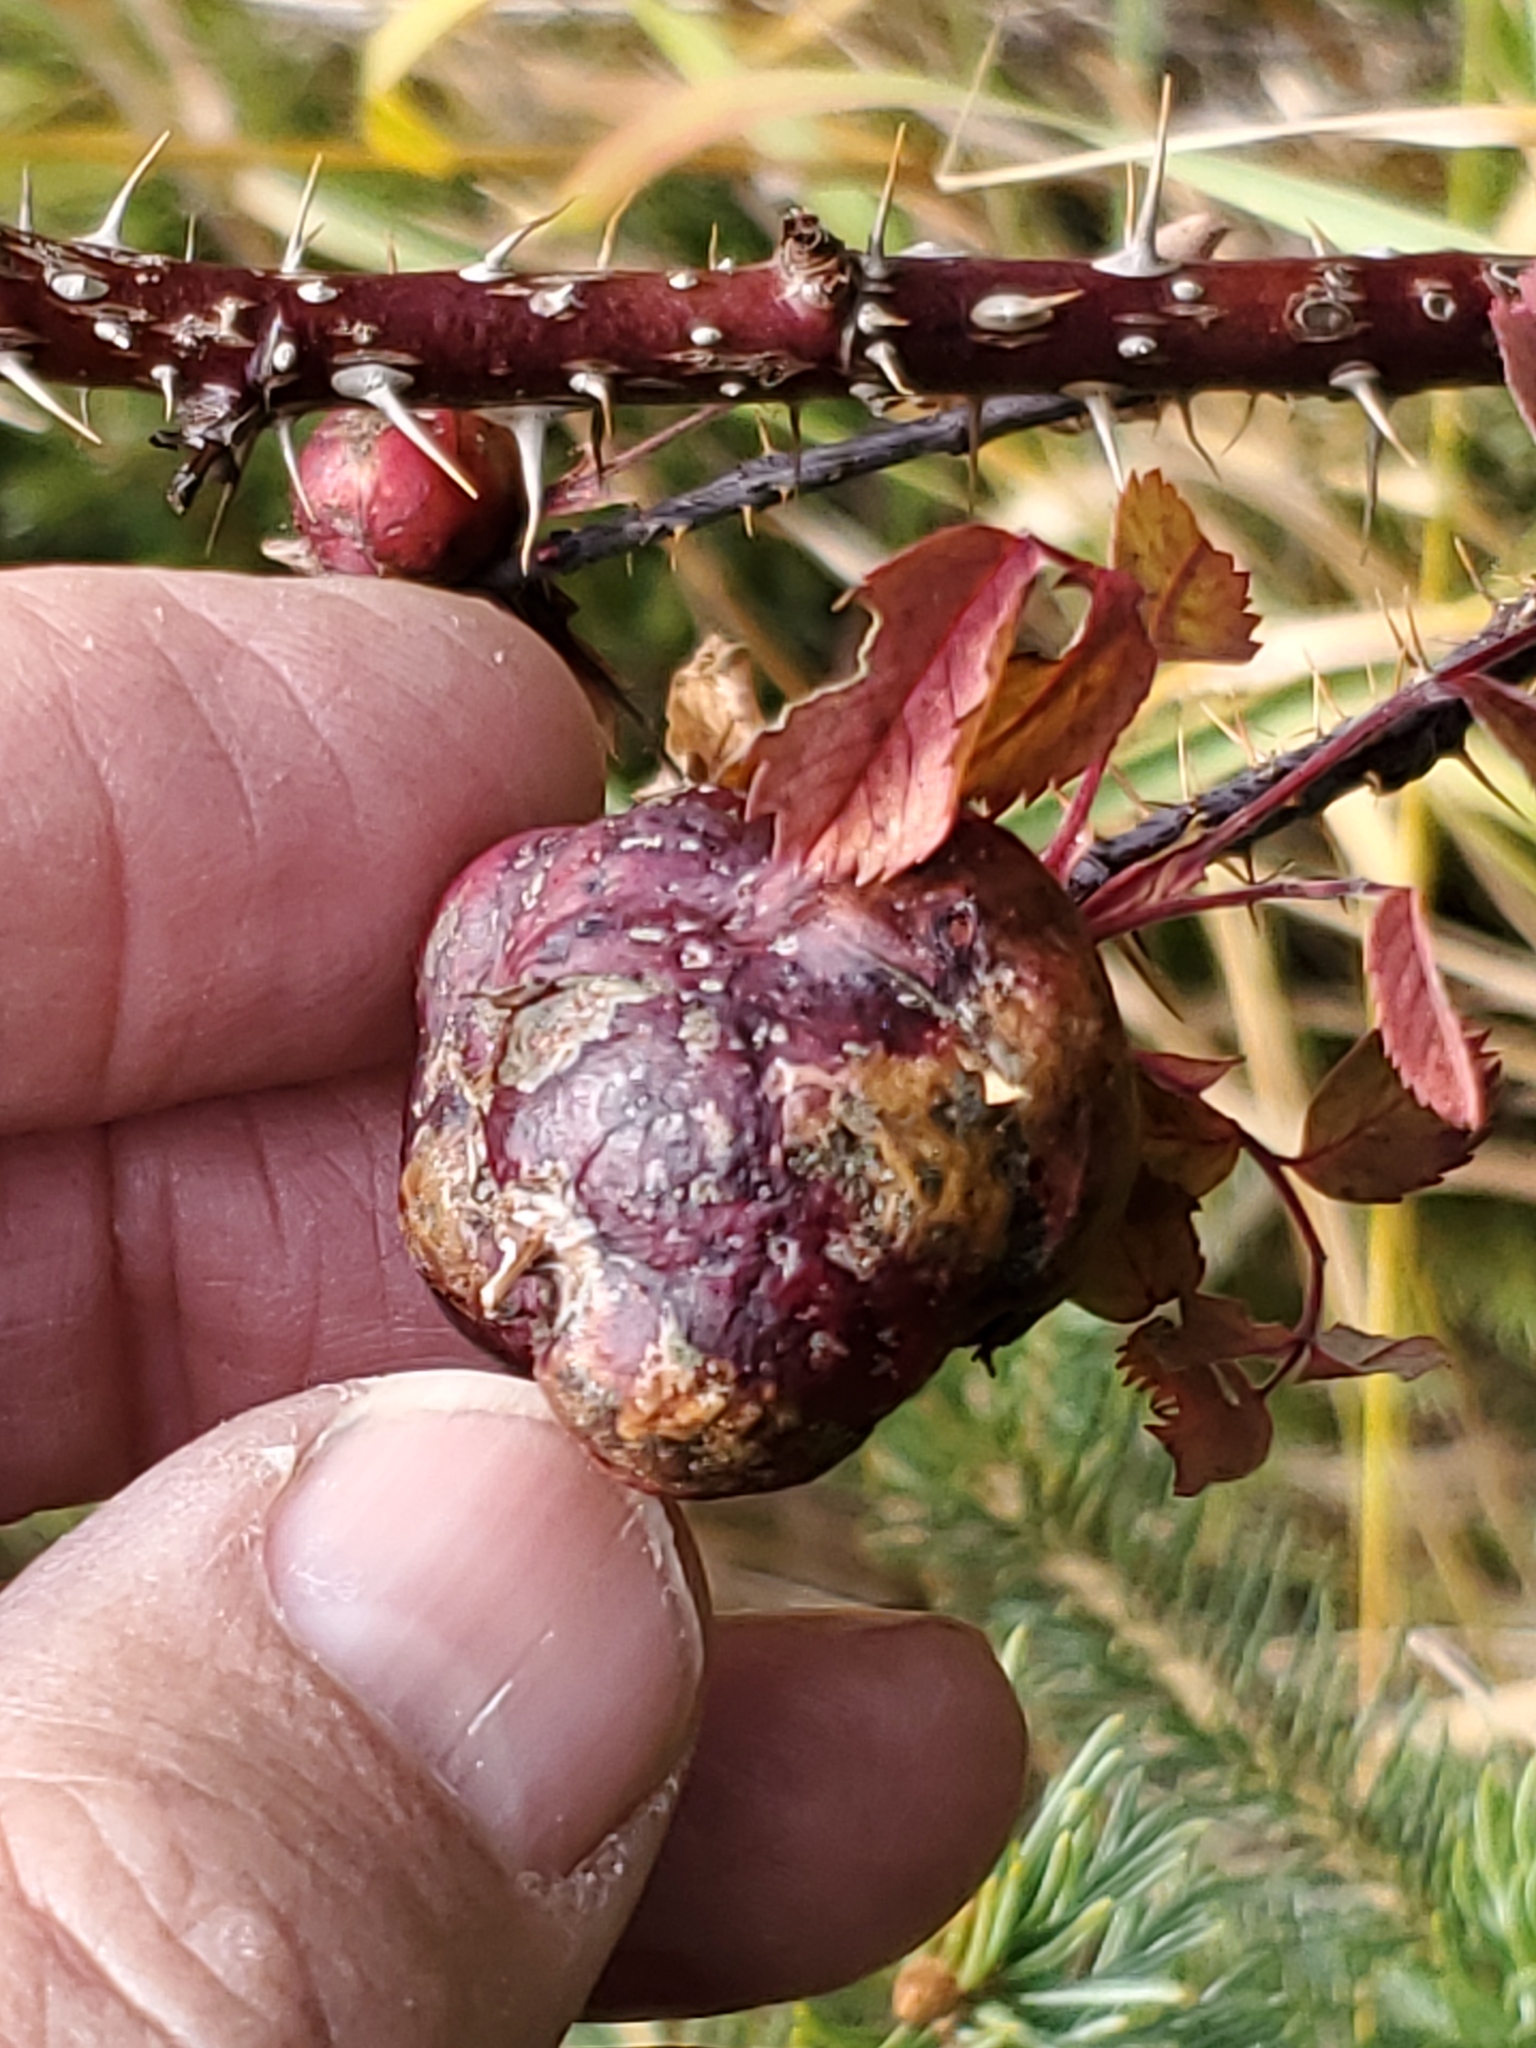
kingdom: Animalia
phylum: Arthropoda
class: Insecta
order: Hymenoptera
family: Cynipidae
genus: Diplolepis
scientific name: Diplolepis spinosa
